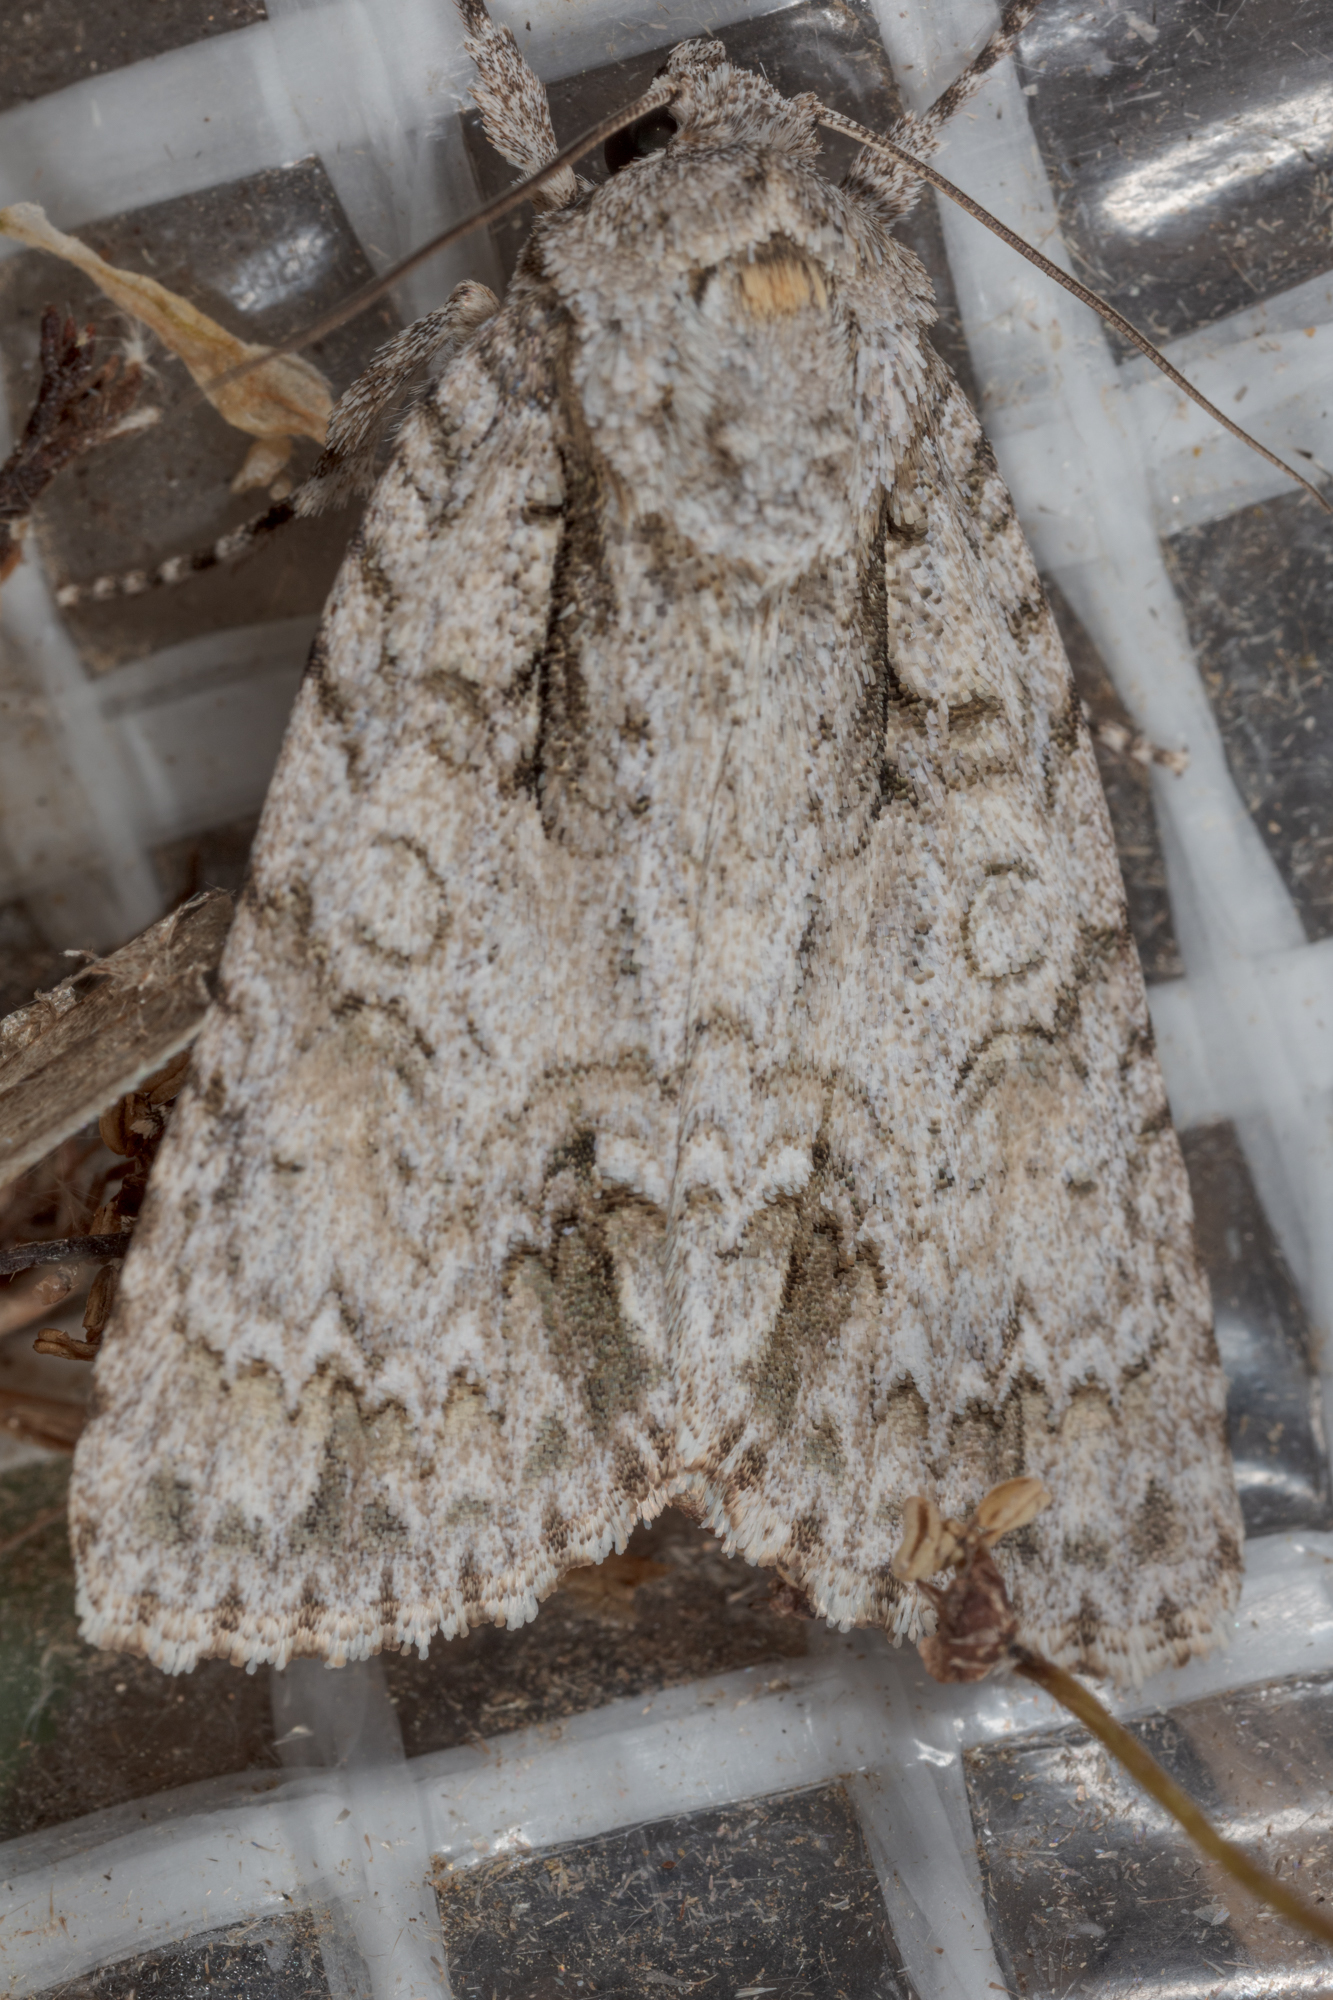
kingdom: Animalia
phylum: Arthropoda
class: Insecta
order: Lepidoptera
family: Noctuidae
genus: Acronicta
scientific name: Acronicta clarescens
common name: Clear dagger
